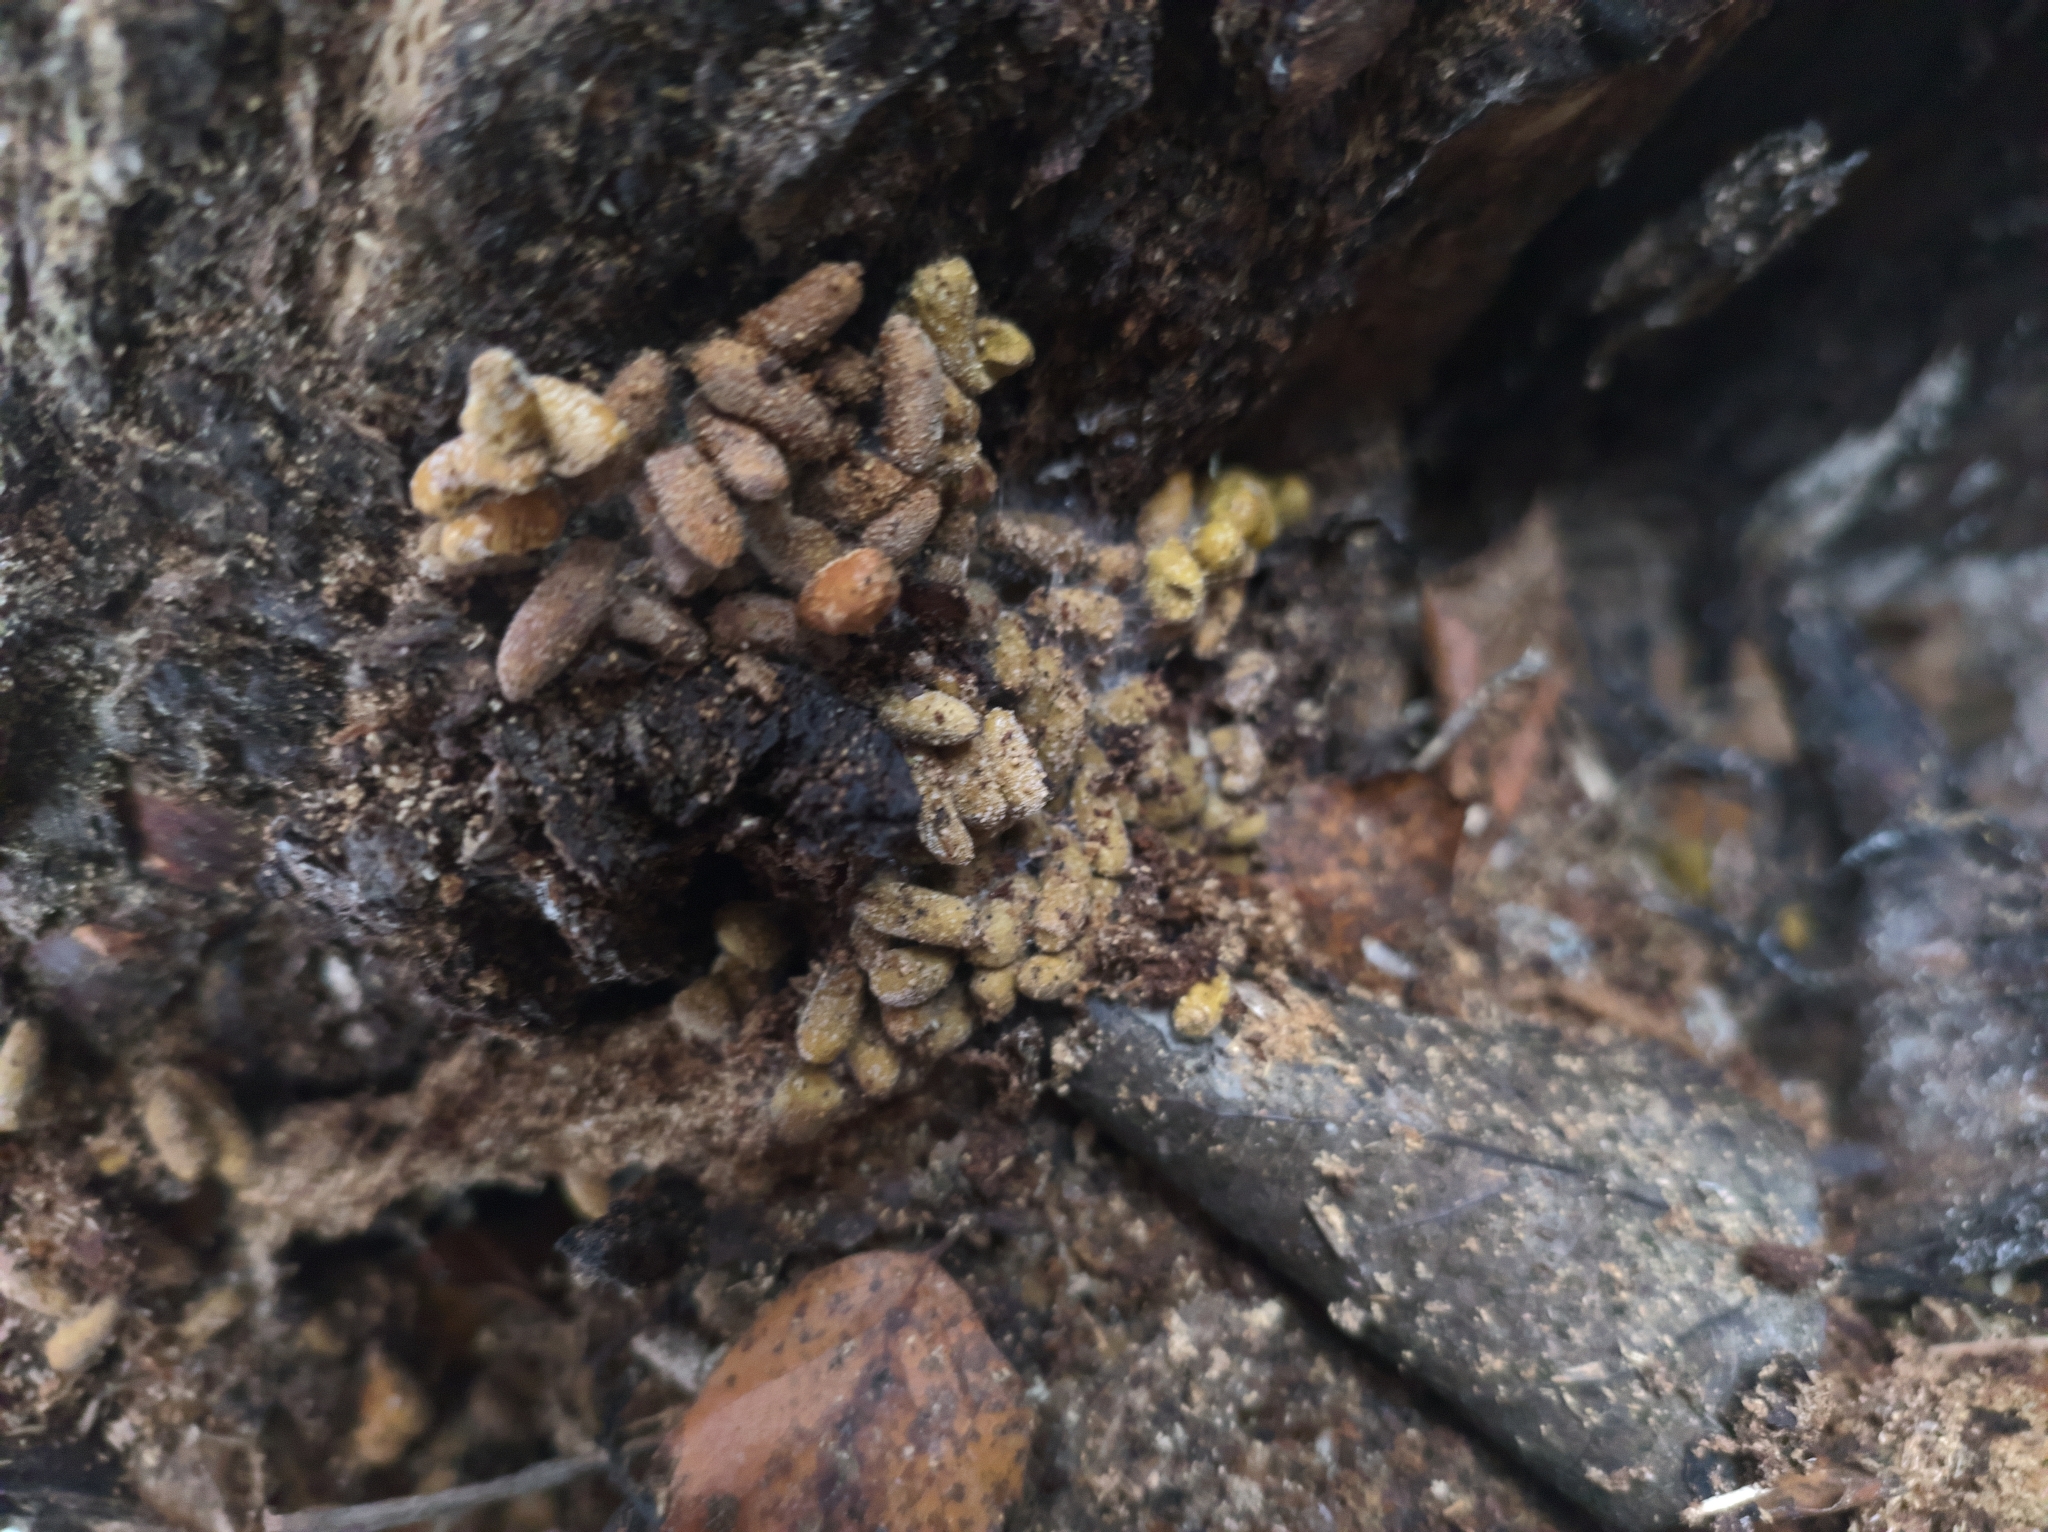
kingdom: Animalia
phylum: Chordata
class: Mammalia
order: Rodentia
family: Sciuridae
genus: Pteromys
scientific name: Pteromys volans
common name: Siberian flying squirrel
